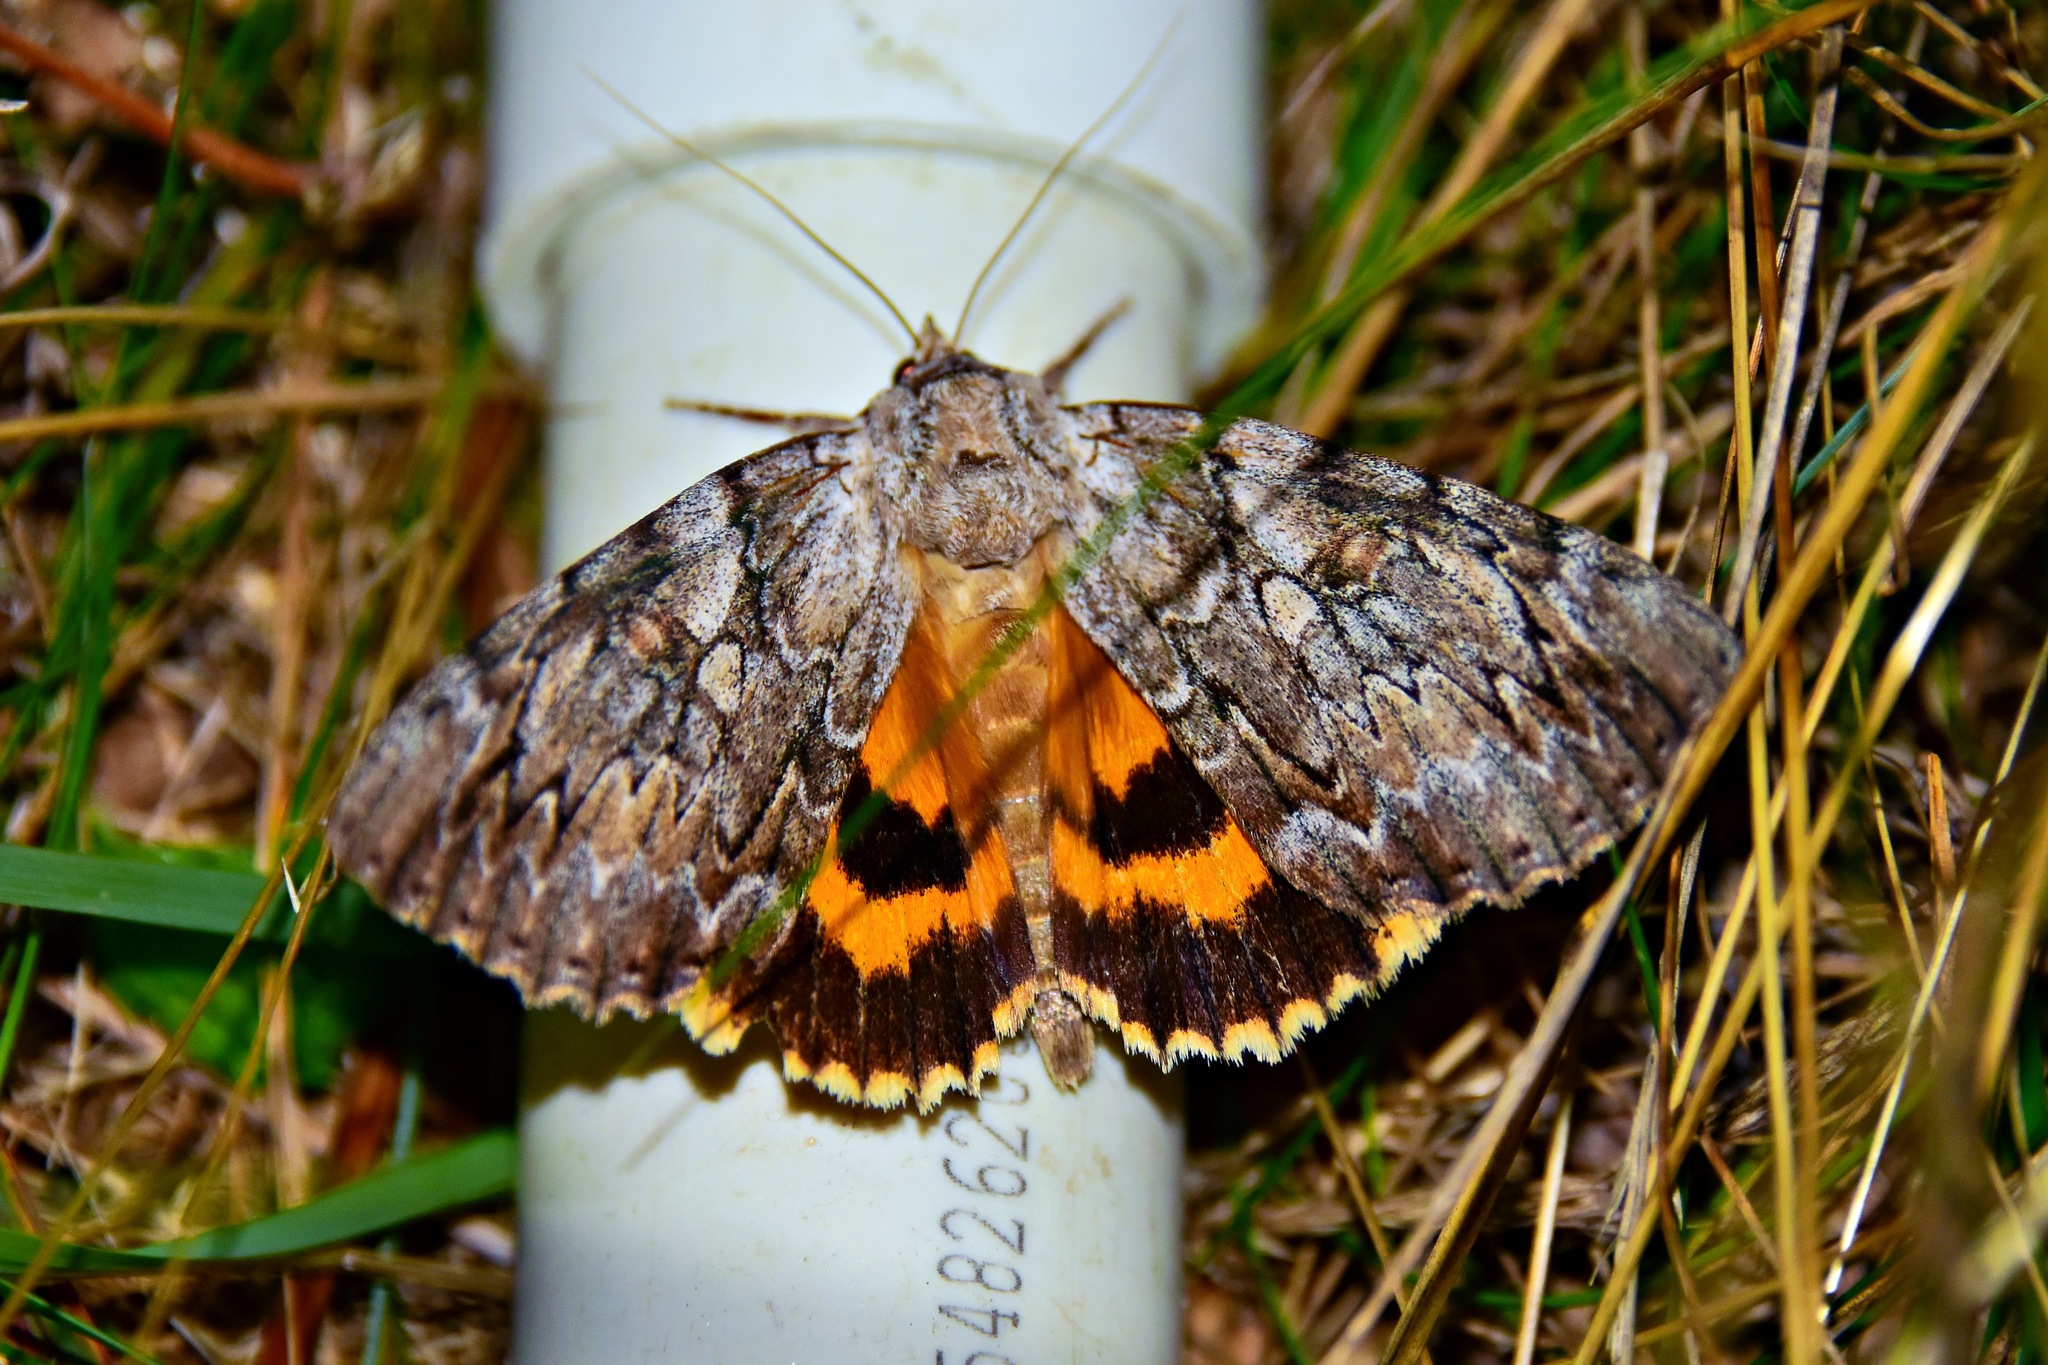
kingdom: Animalia
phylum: Arthropoda
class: Insecta
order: Lepidoptera
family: Erebidae
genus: Catocala
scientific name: Catocala subnata
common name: Youthful underwing
